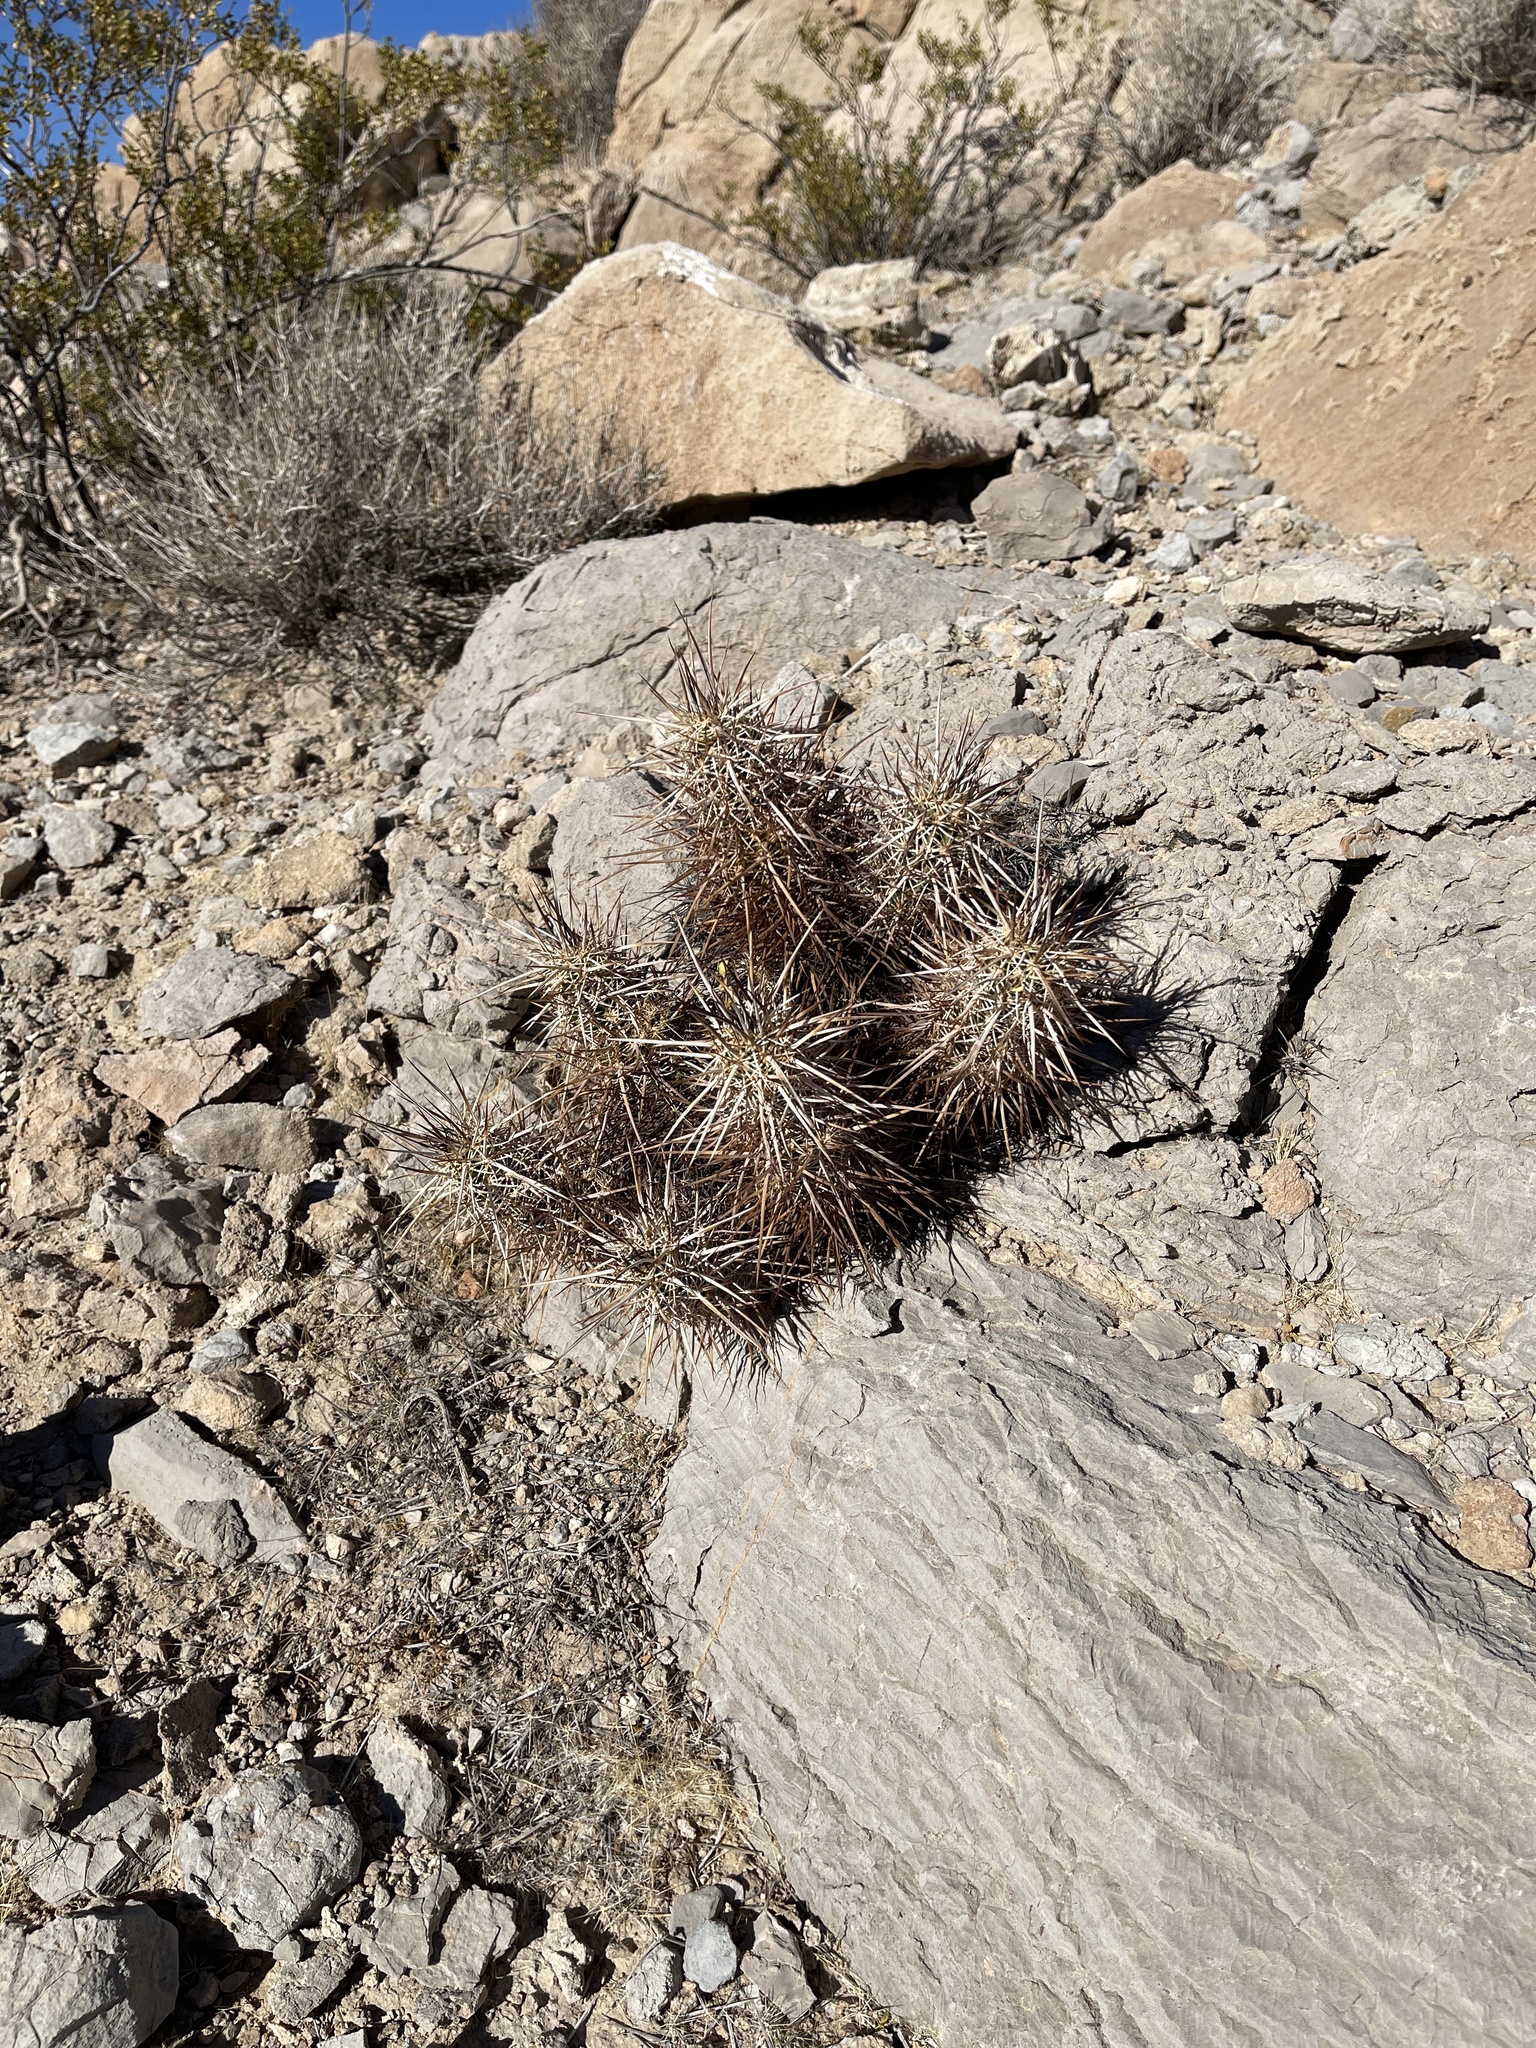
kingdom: Plantae
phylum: Tracheophyta
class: Magnoliopsida
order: Caryophyllales
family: Cactaceae
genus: Echinocereus
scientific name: Echinocereus engelmannii
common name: Engelmann's hedgehog cactus
